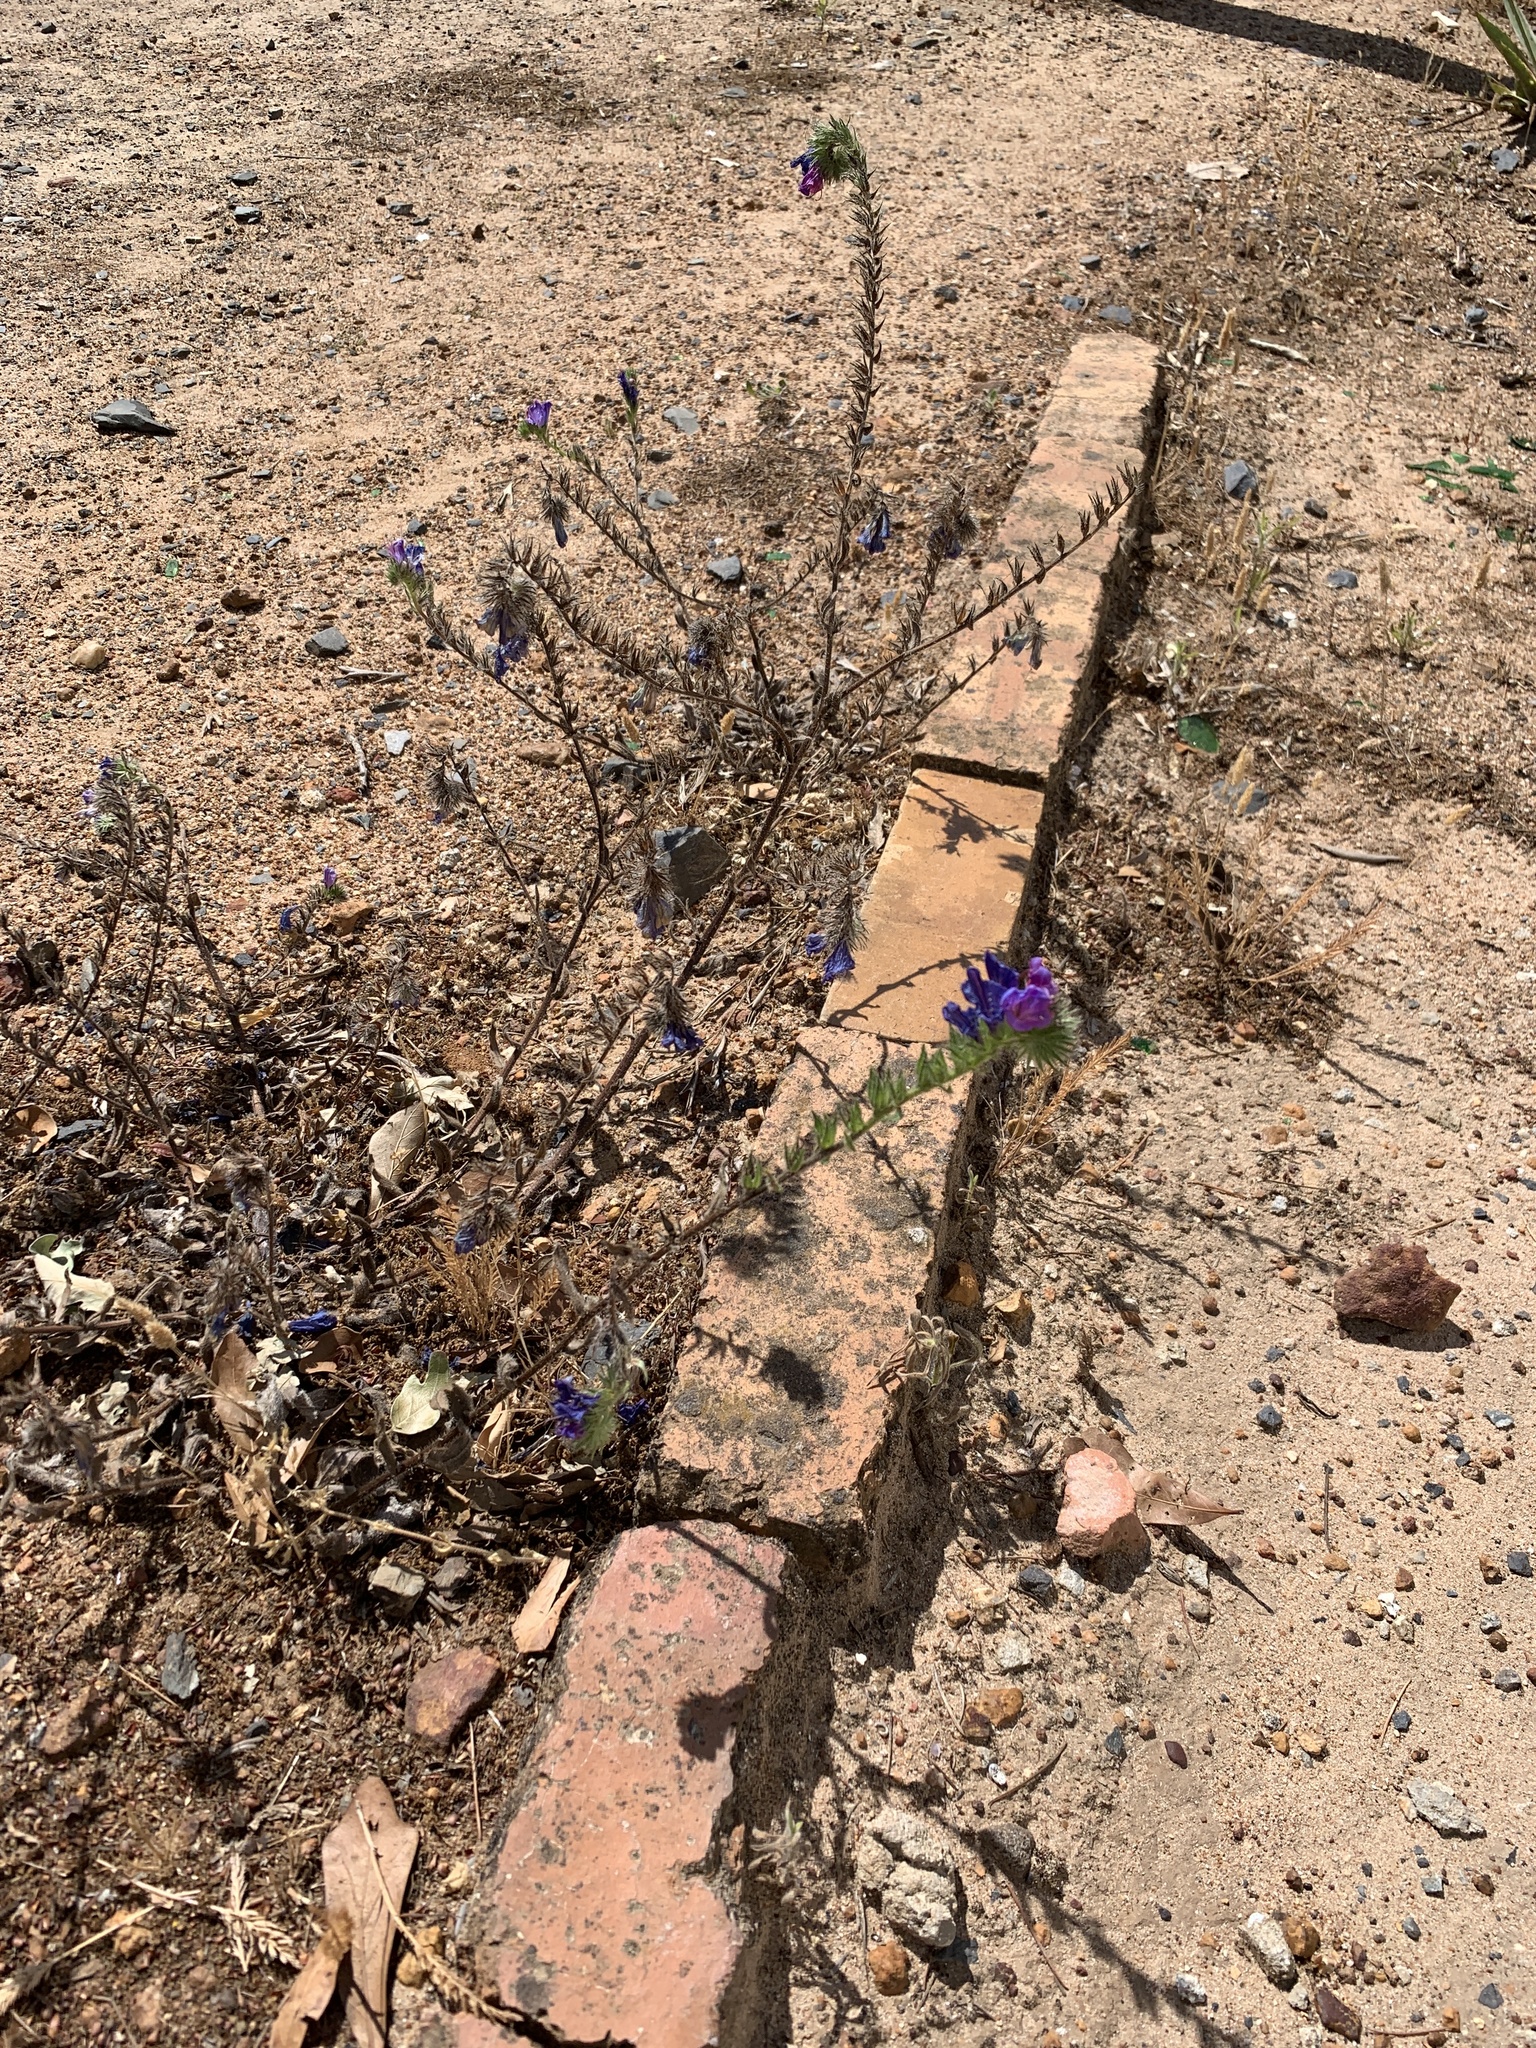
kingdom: Plantae
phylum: Tracheophyta
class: Magnoliopsida
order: Boraginales
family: Boraginaceae
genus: Echium
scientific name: Echium plantagineum
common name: Purple viper's-bugloss
